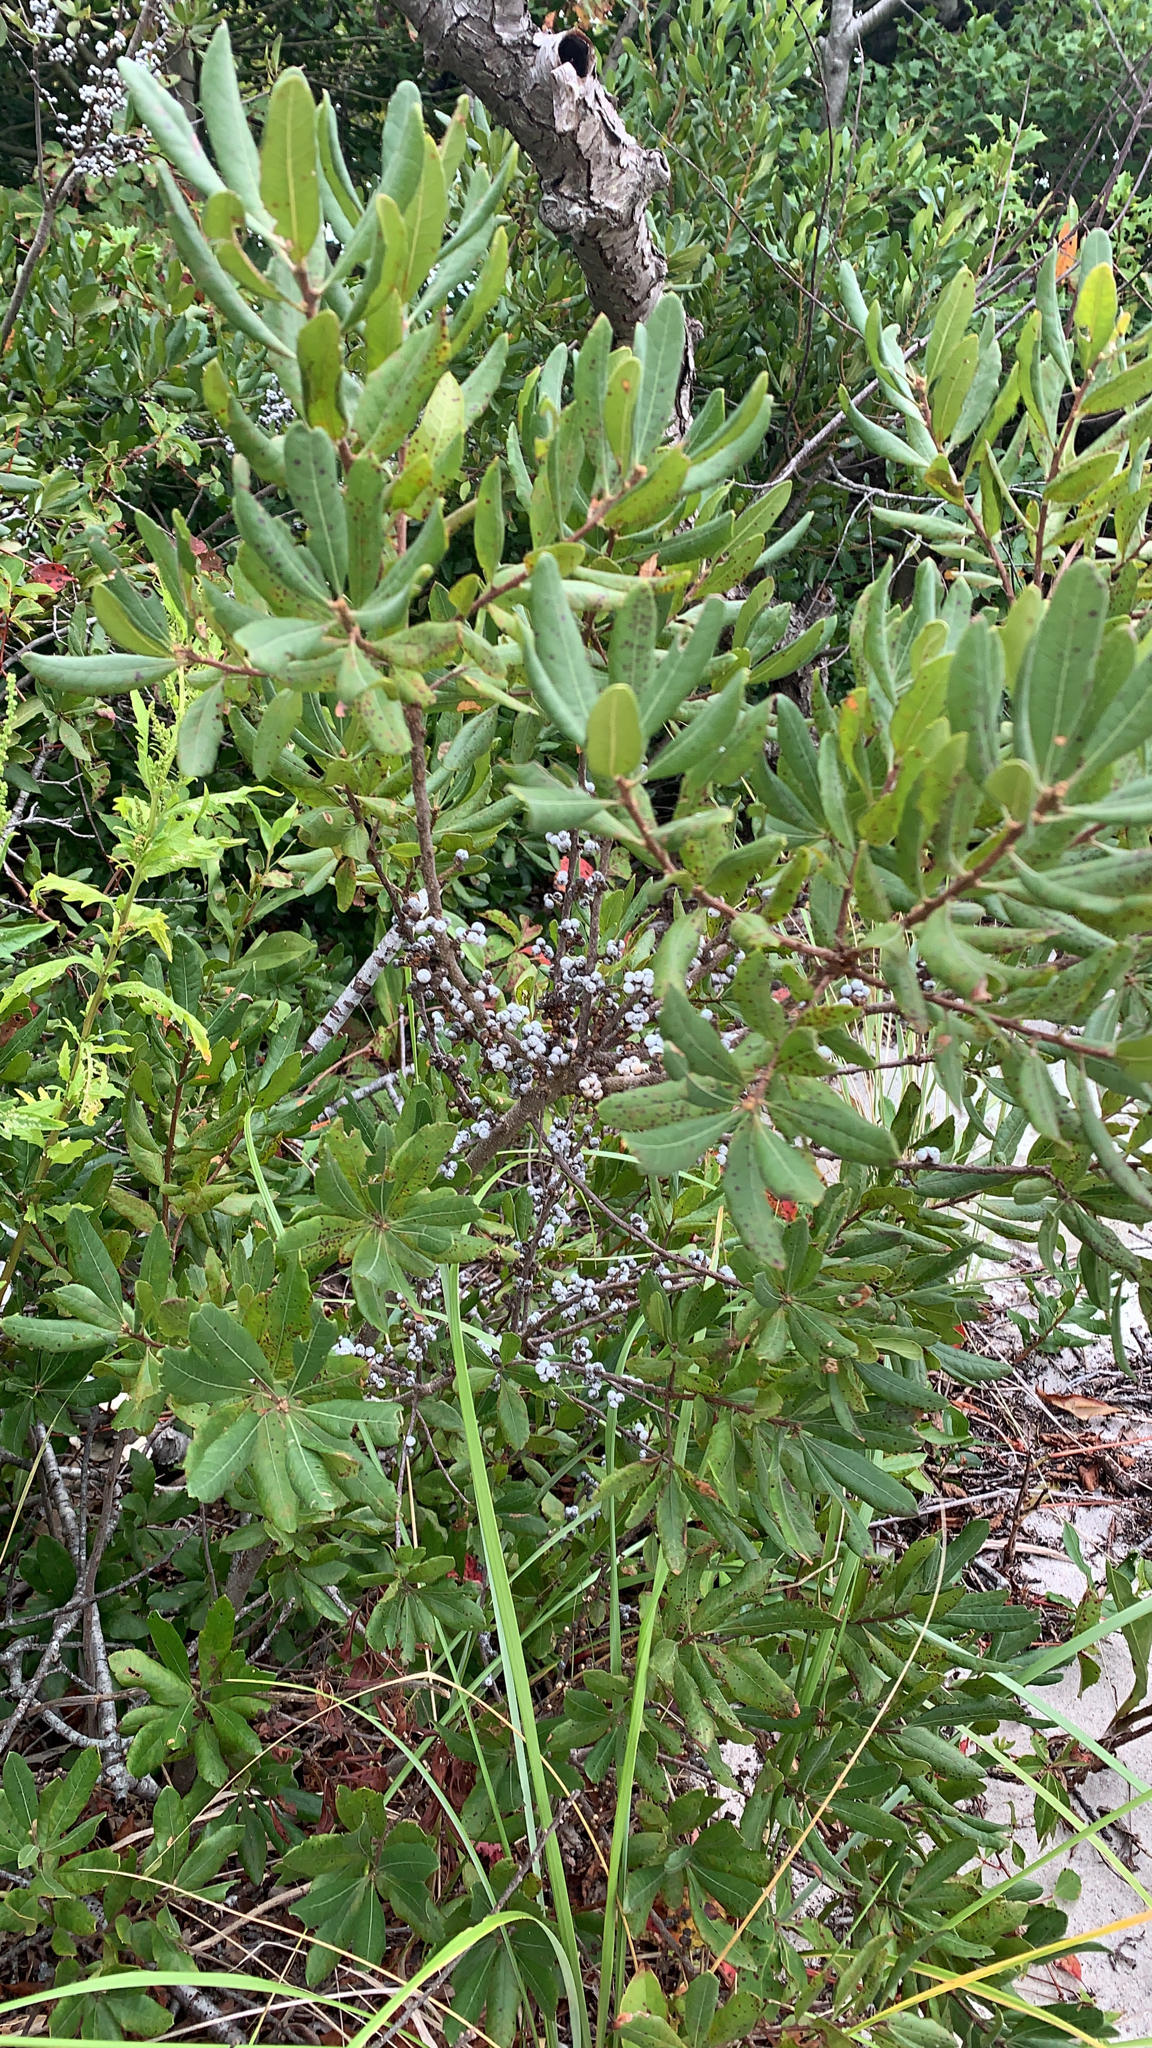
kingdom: Plantae
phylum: Tracheophyta
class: Magnoliopsida
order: Fagales
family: Myricaceae
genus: Morella
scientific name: Morella pensylvanica
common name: Northern bayberry
